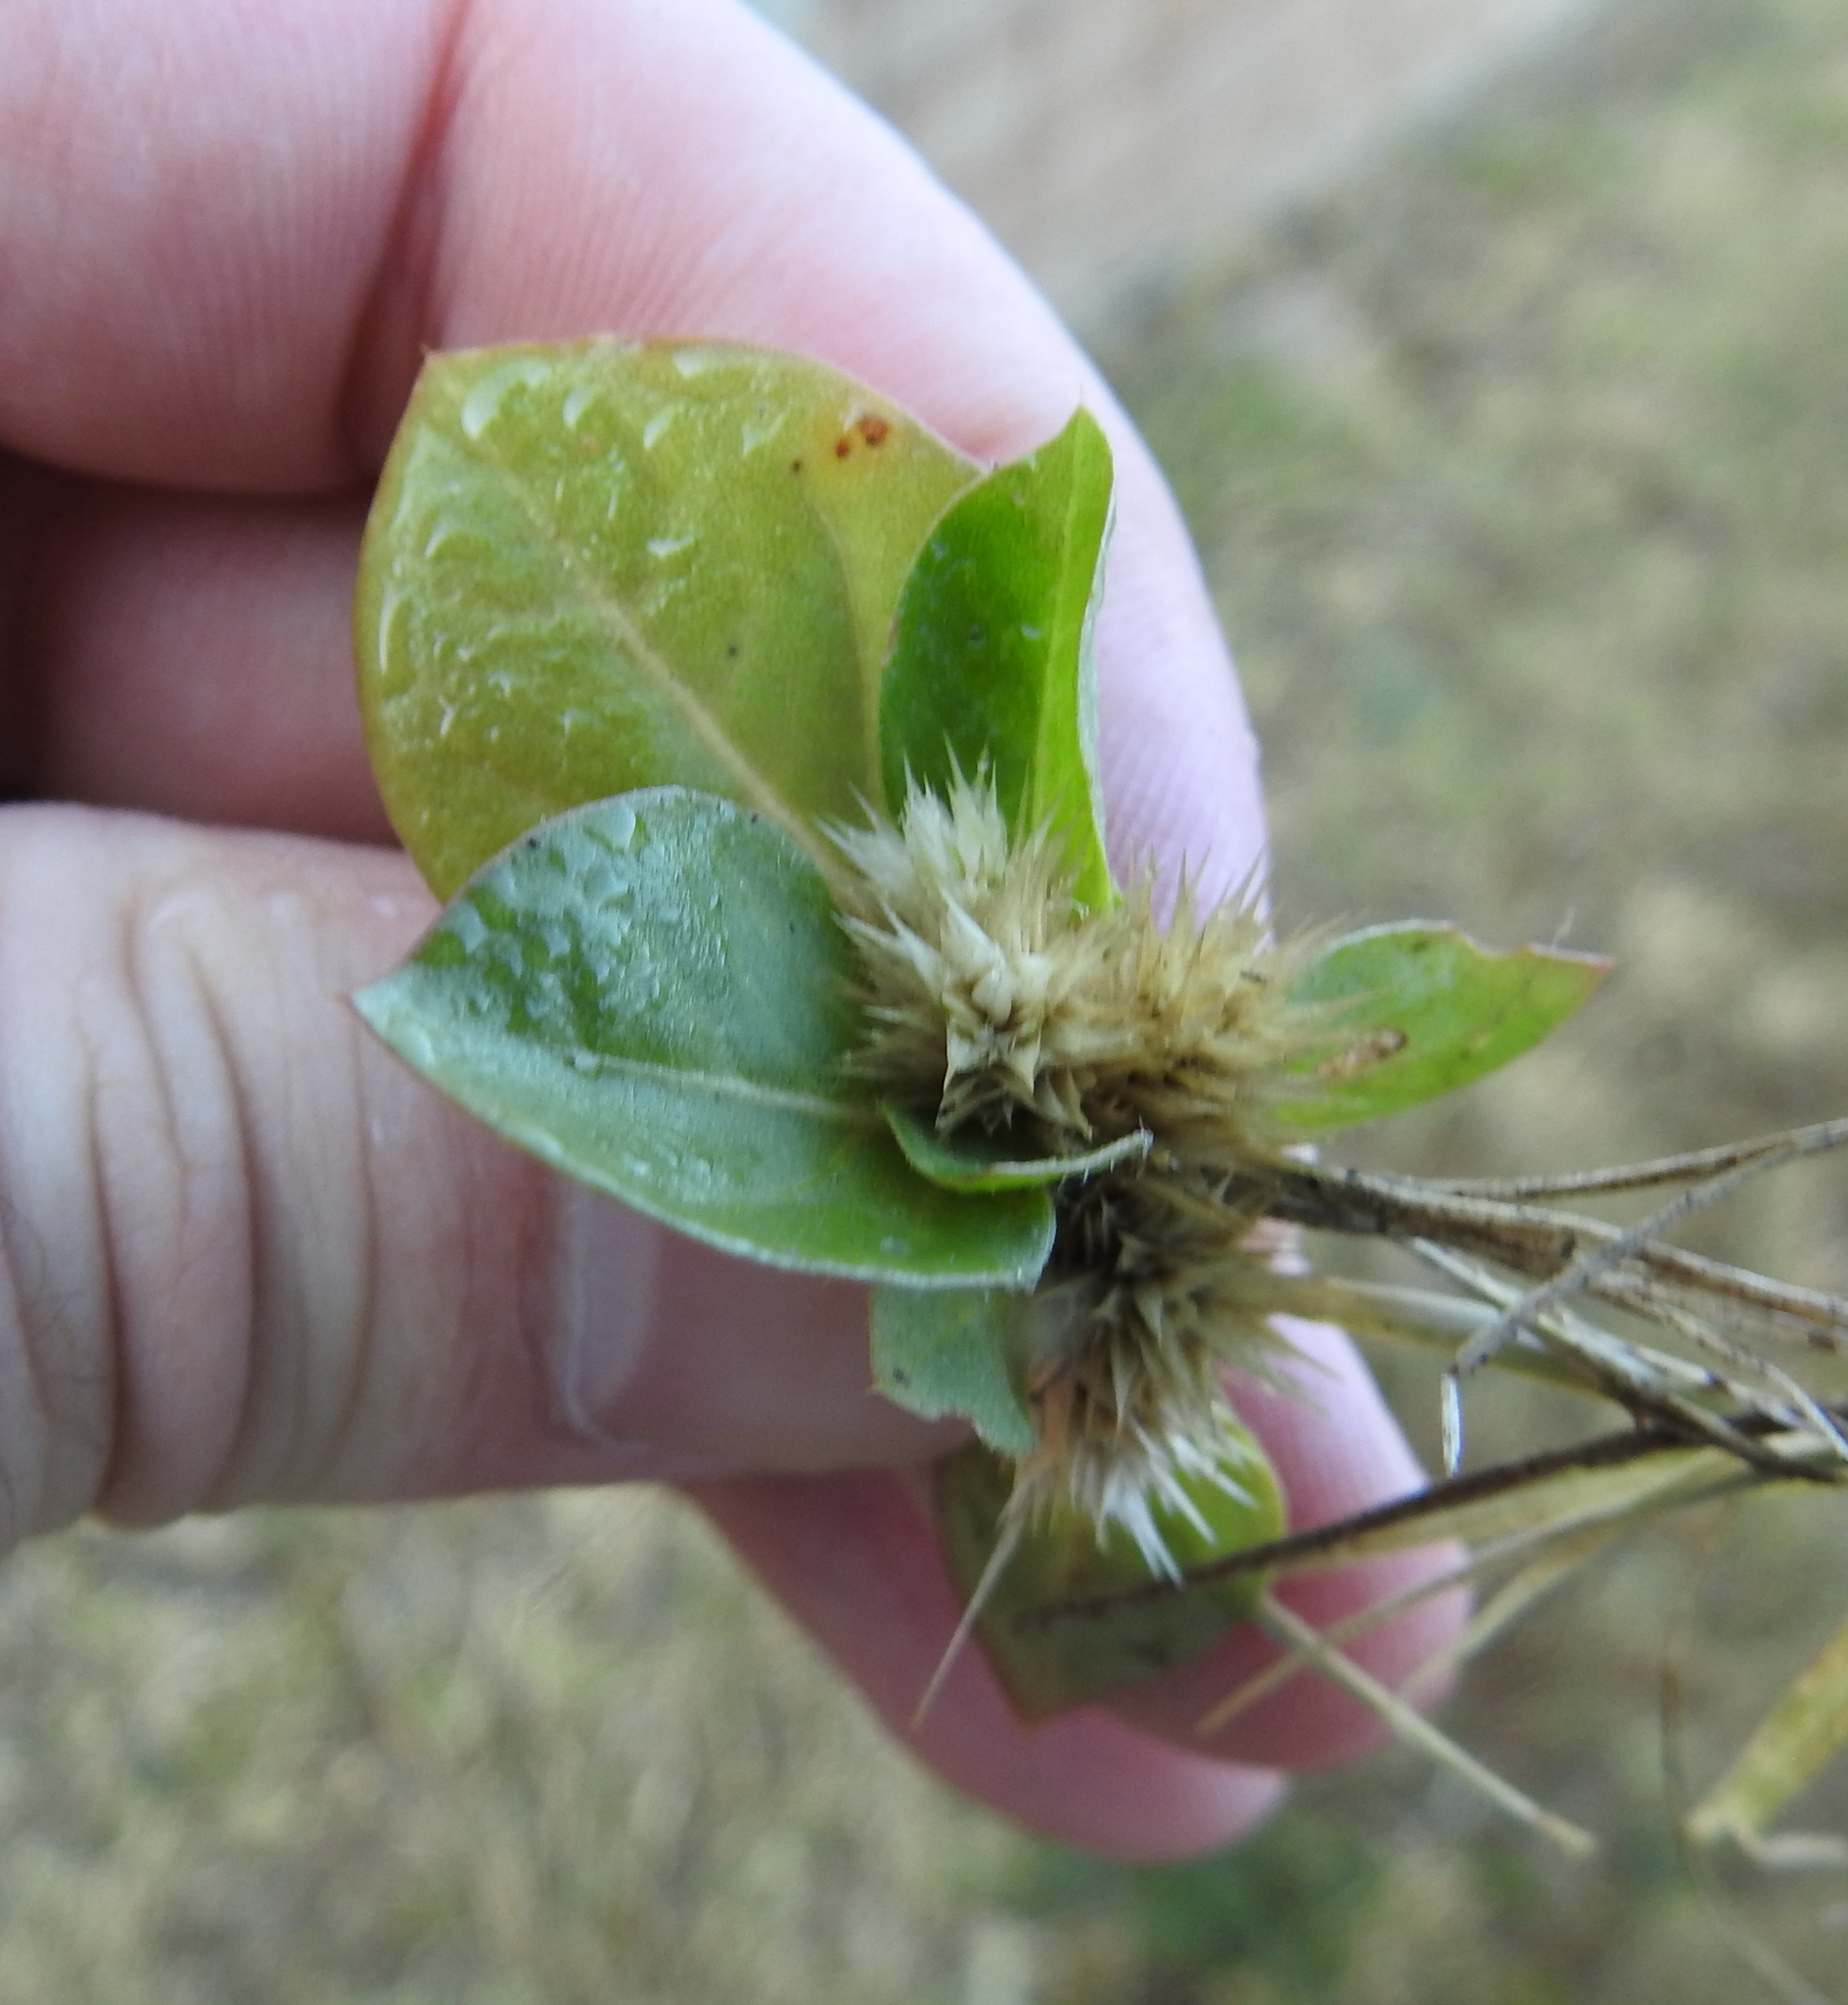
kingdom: Plantae
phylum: Tracheophyta
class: Magnoliopsida
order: Caryophyllales
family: Amaranthaceae
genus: Alternanthera
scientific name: Alternanthera pungens
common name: Khakiweed
